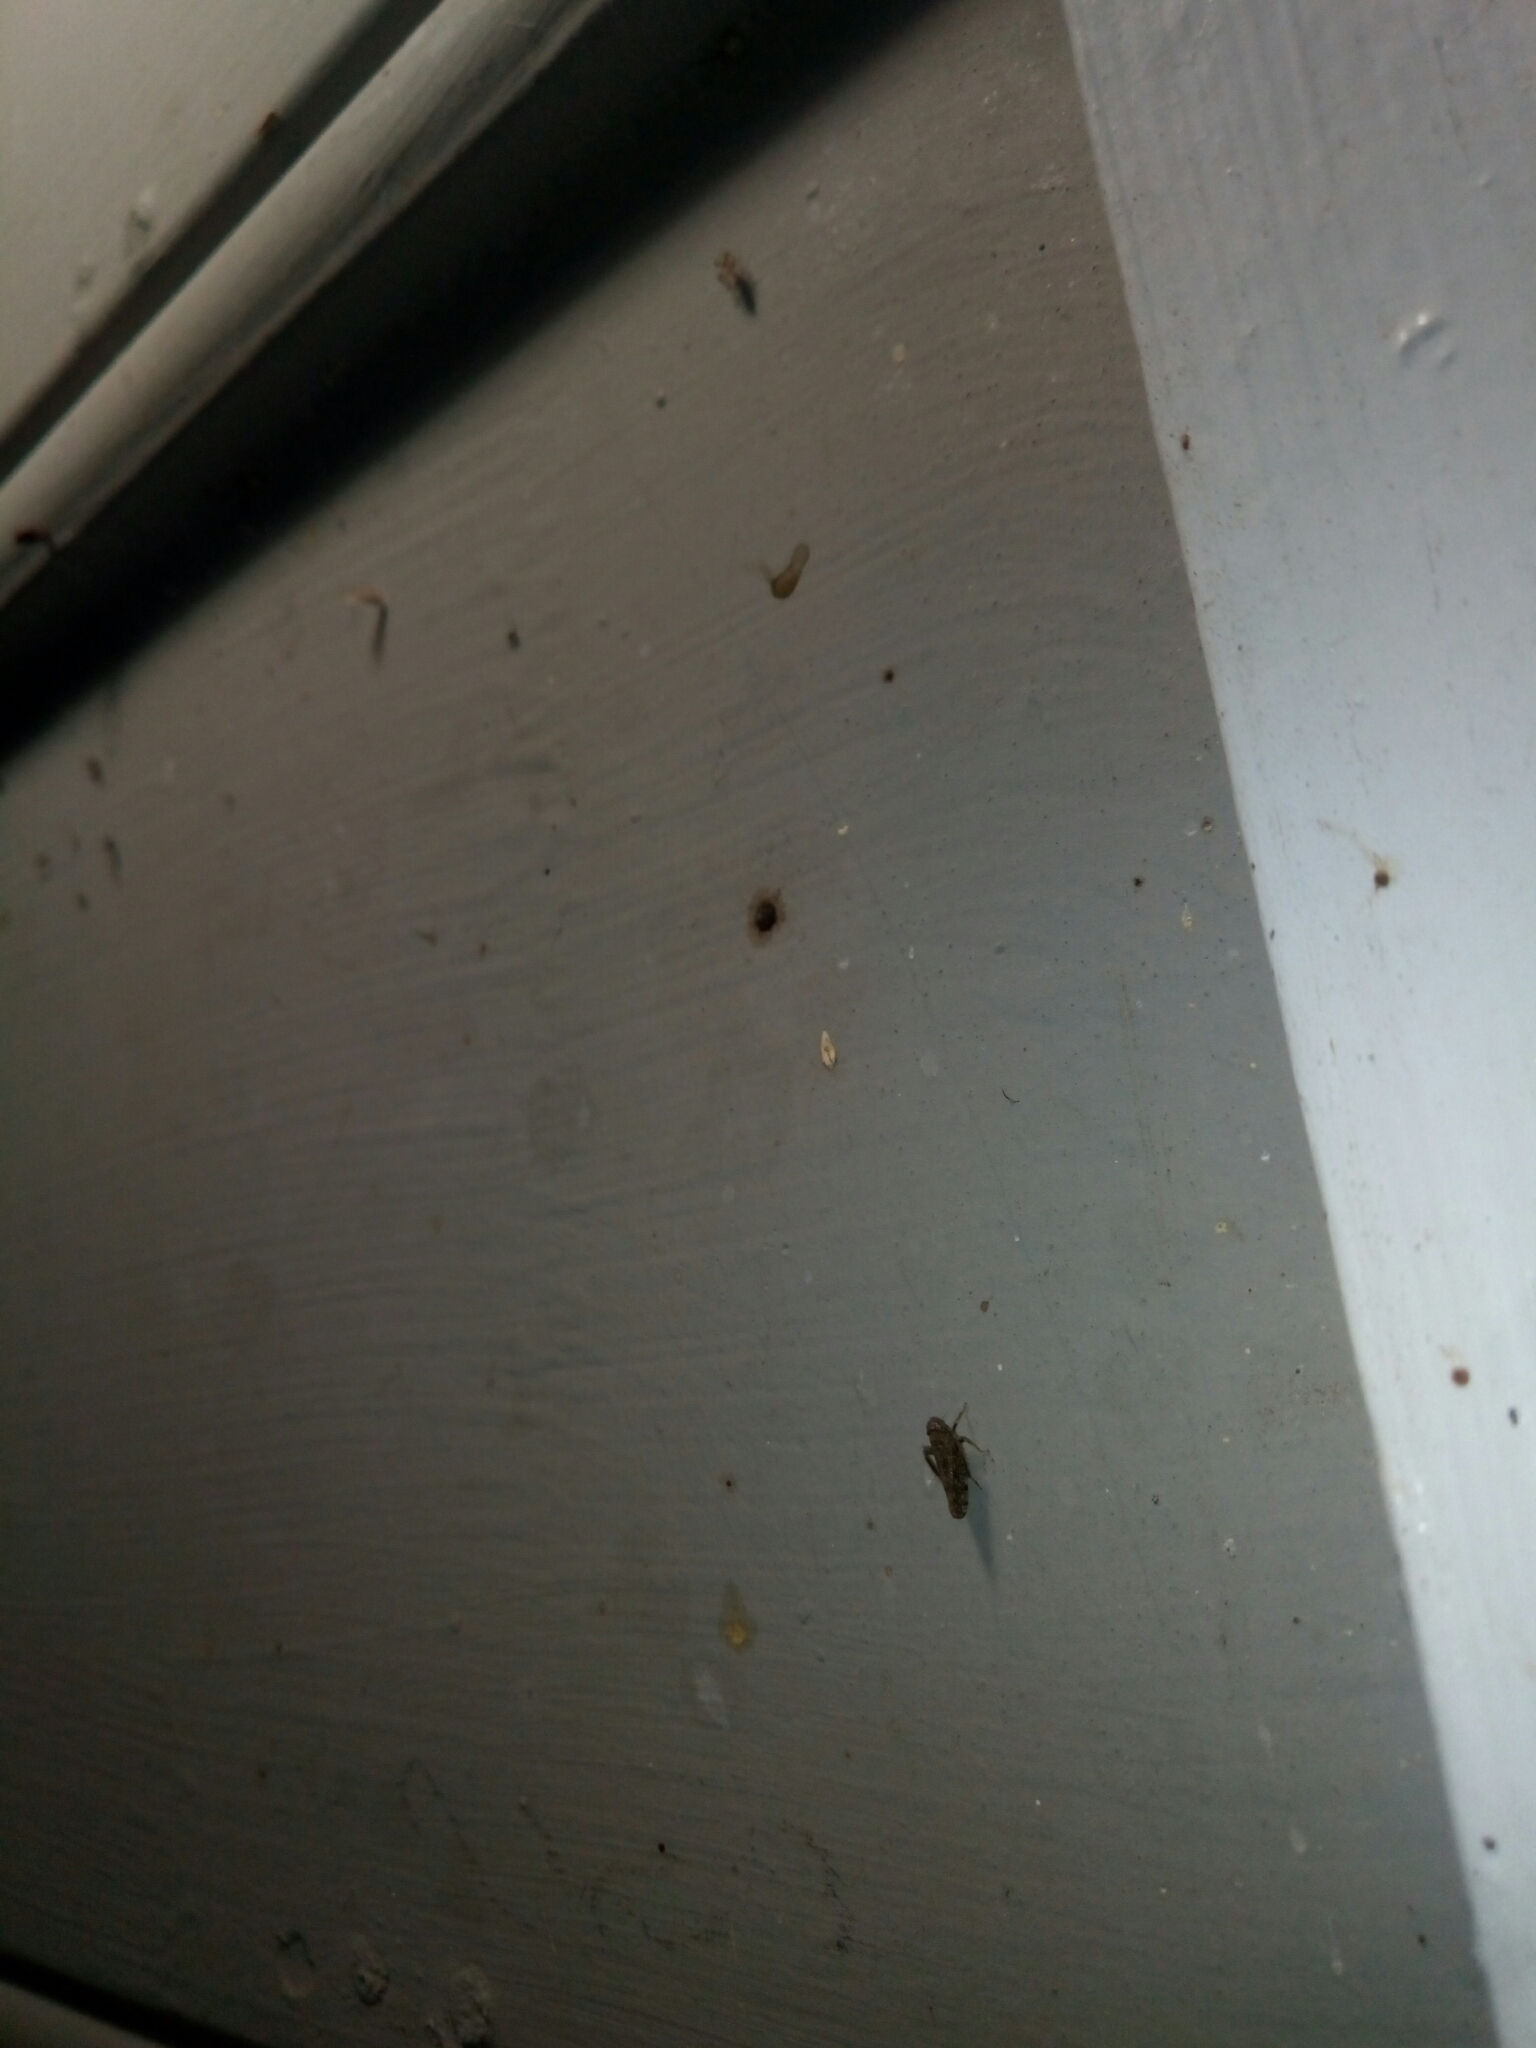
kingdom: Animalia
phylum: Arthropoda
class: Insecta
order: Hemiptera
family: Cicadellidae
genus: Orientus
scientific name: Orientus ishidae
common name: Japanese leafhopper
